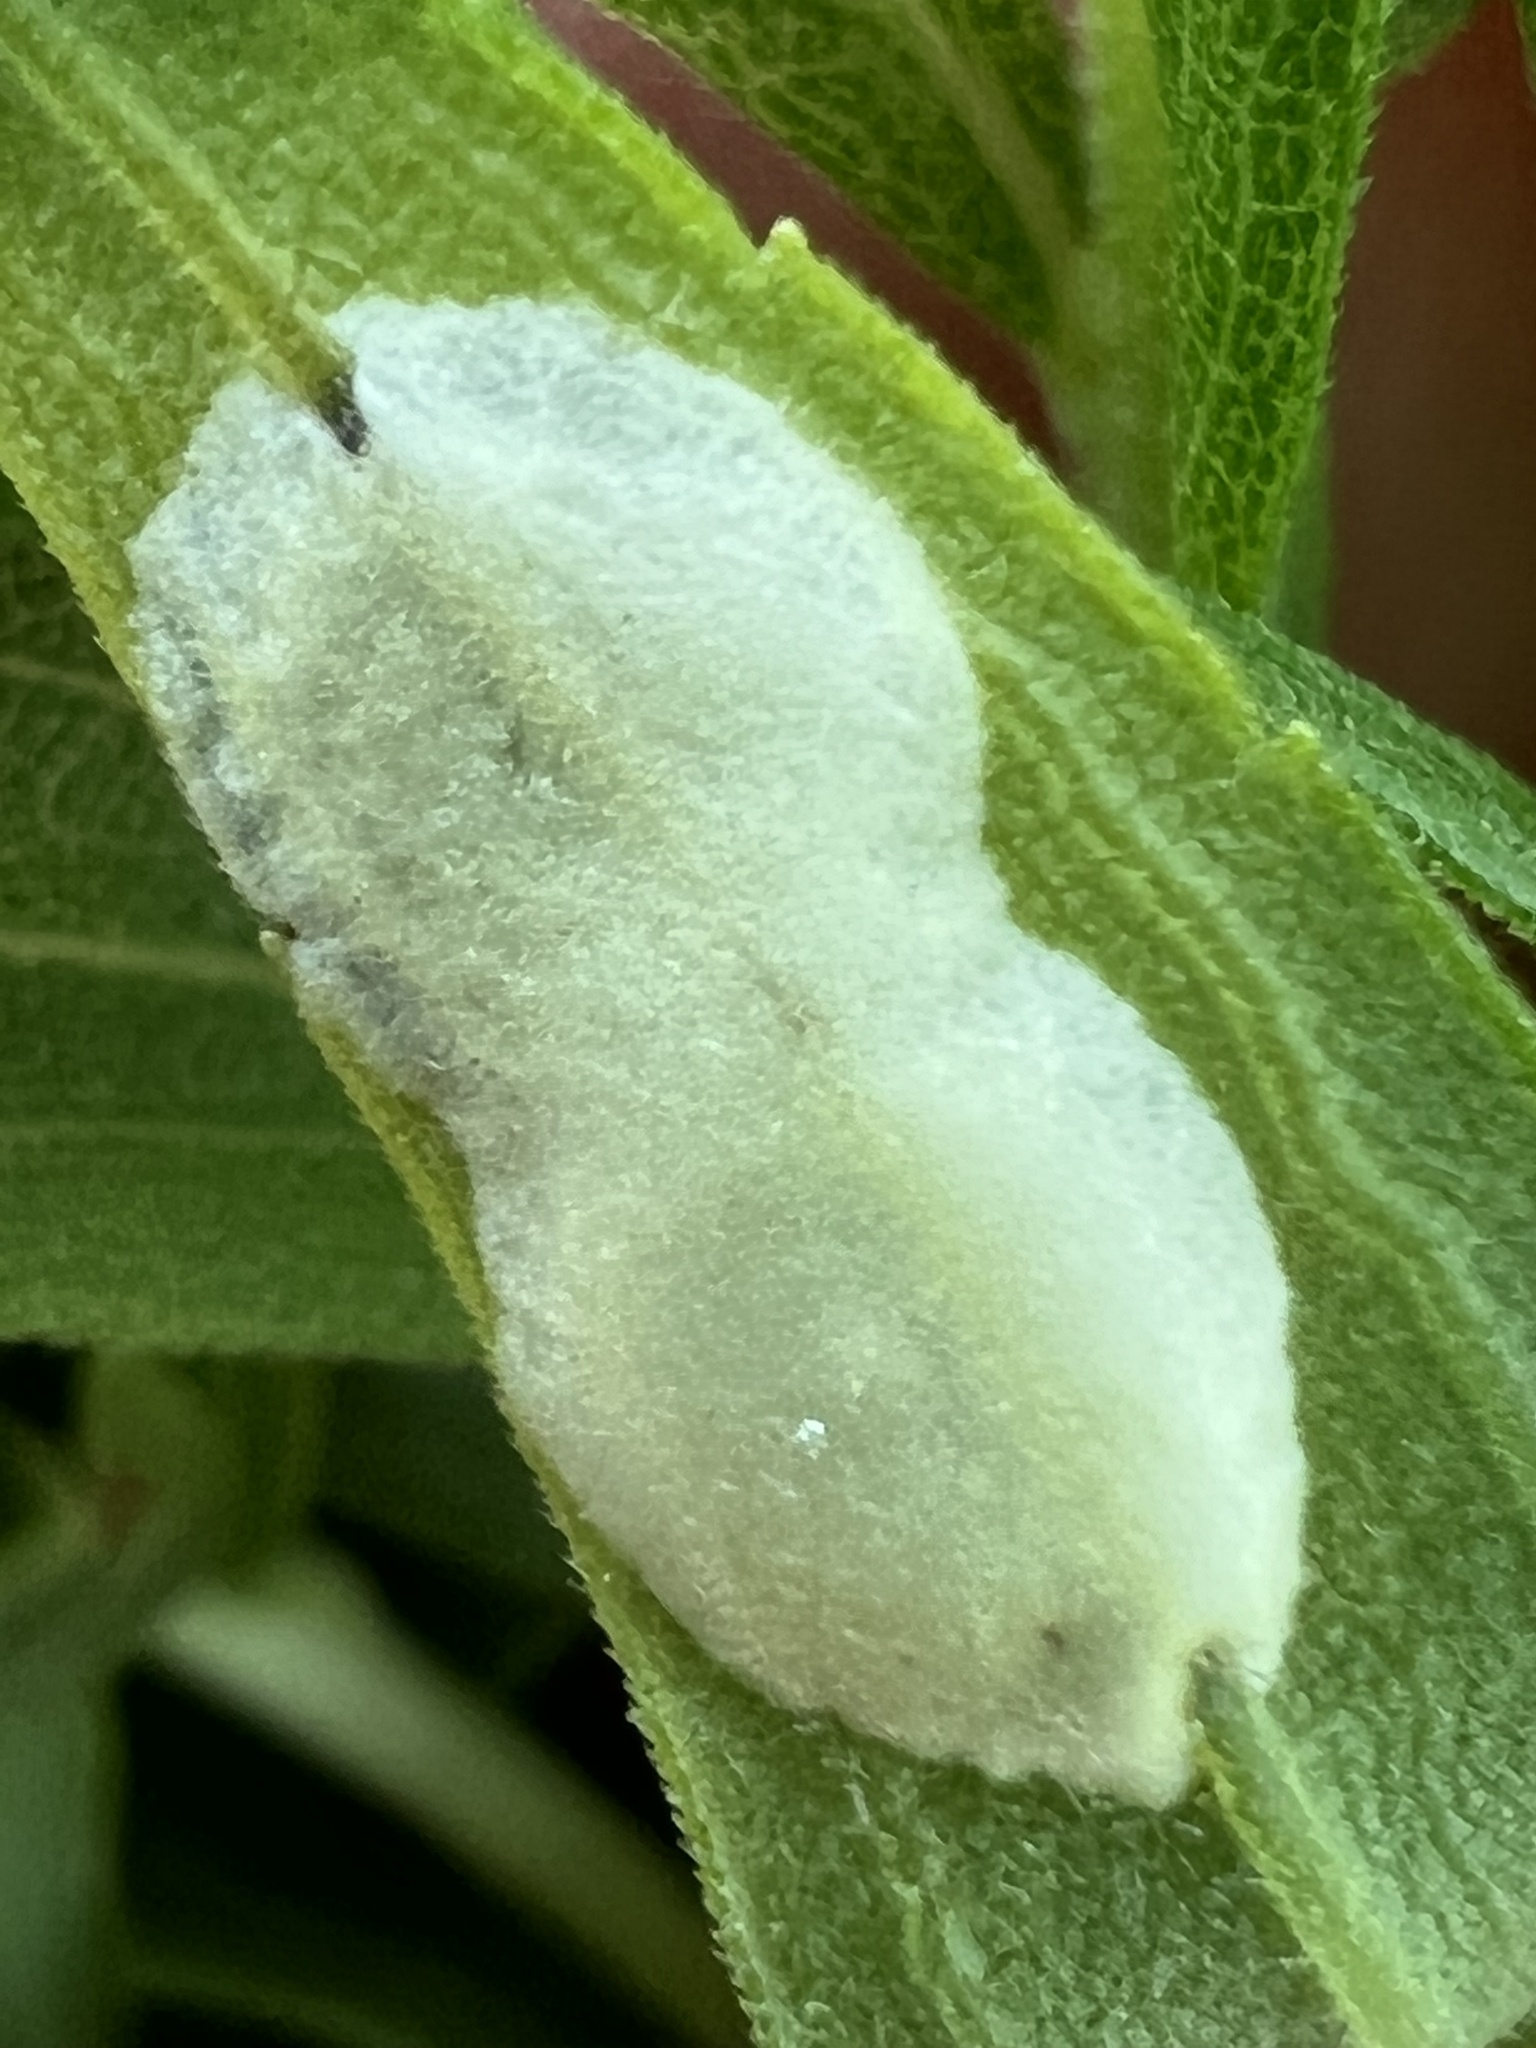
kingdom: Animalia
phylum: Arthropoda
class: Insecta
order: Diptera
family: Cecidomyiidae
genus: Asteromyia
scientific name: Asteromyia carbonifera
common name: Carbonifera goldenrod gall midge
